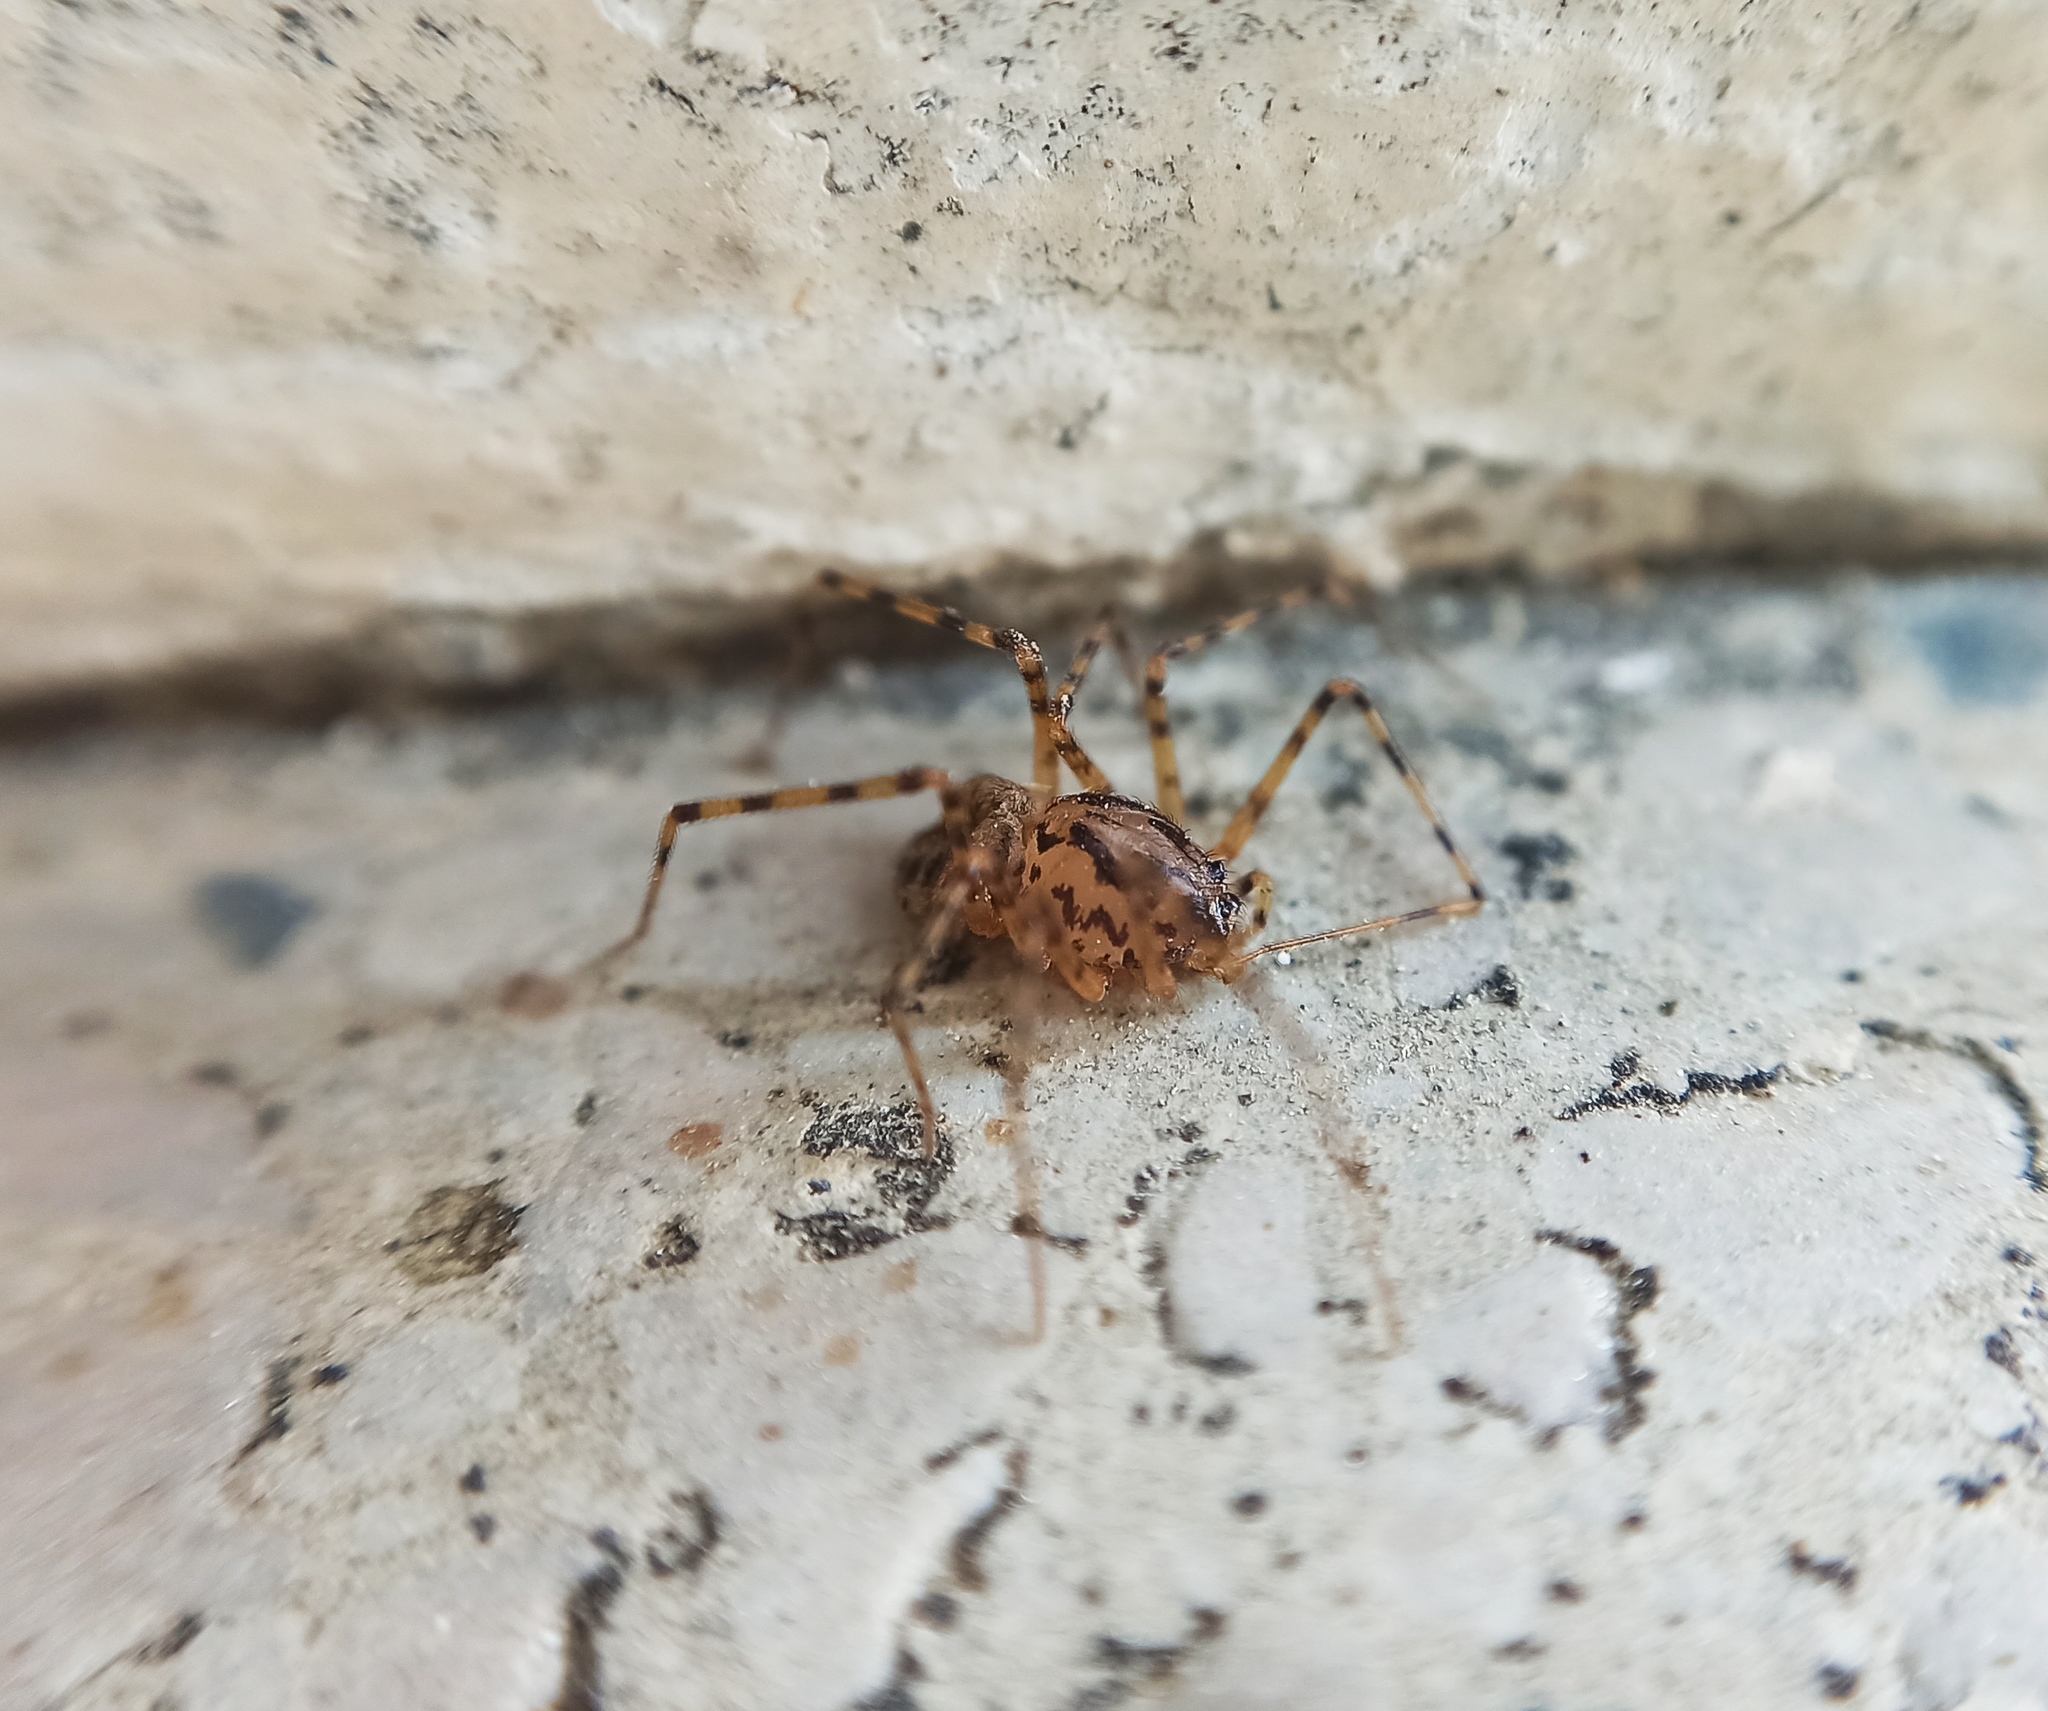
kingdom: Animalia
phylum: Arthropoda
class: Arachnida
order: Araneae
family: Scytodidae
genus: Scytodes
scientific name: Scytodes thoracica
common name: Spitting spider
